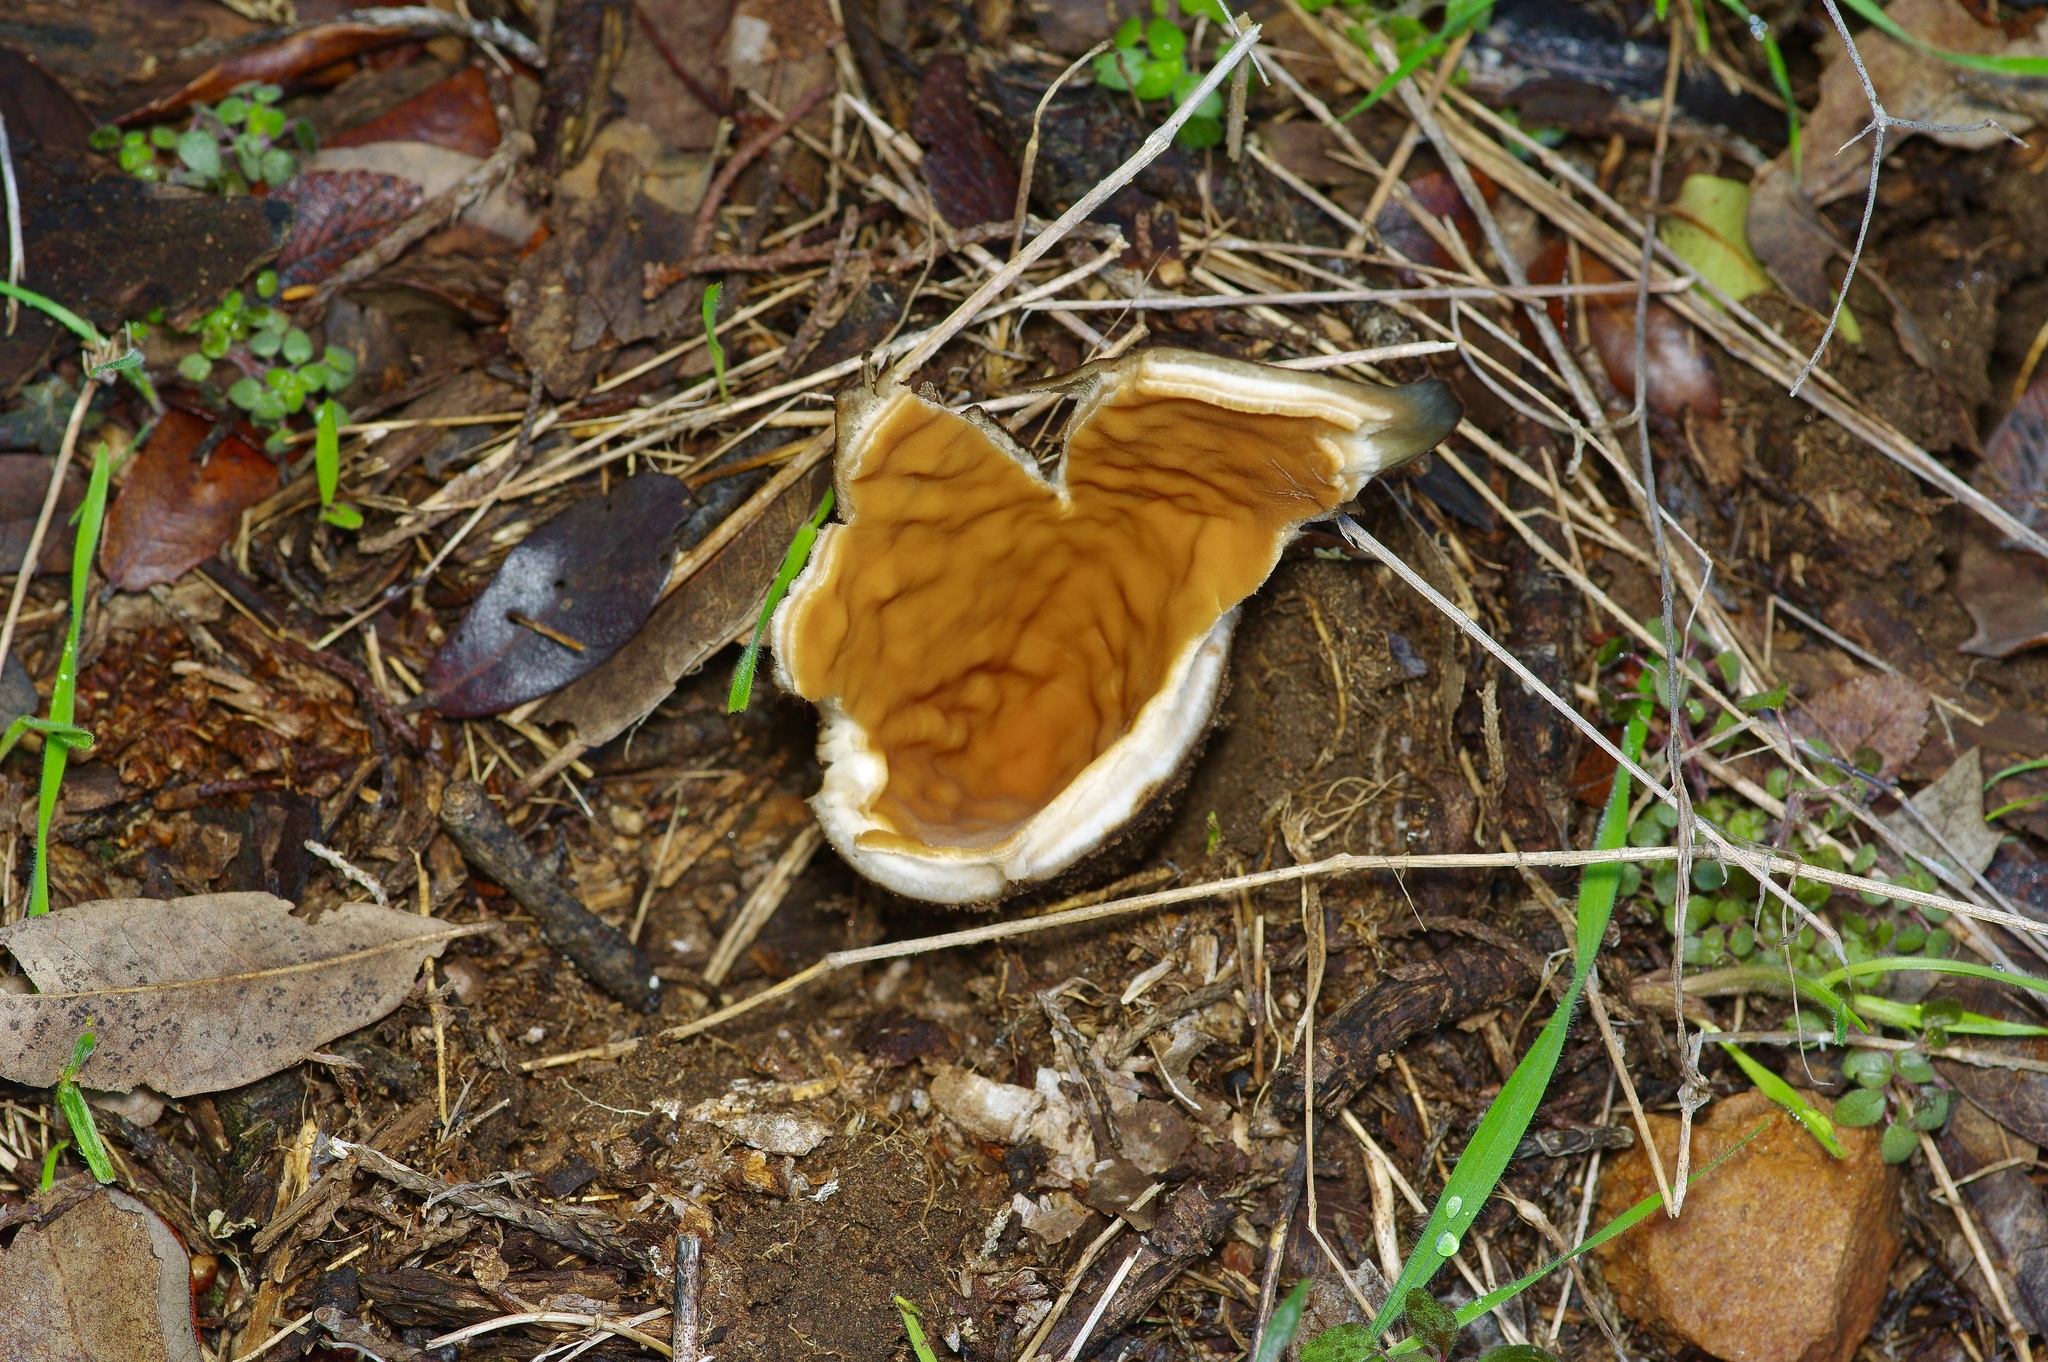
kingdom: Fungi
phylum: Ascomycota
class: Pezizomycetes
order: Pezizales
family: Chorioactidaceae
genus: Chorioactis
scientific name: Chorioactis geaster
